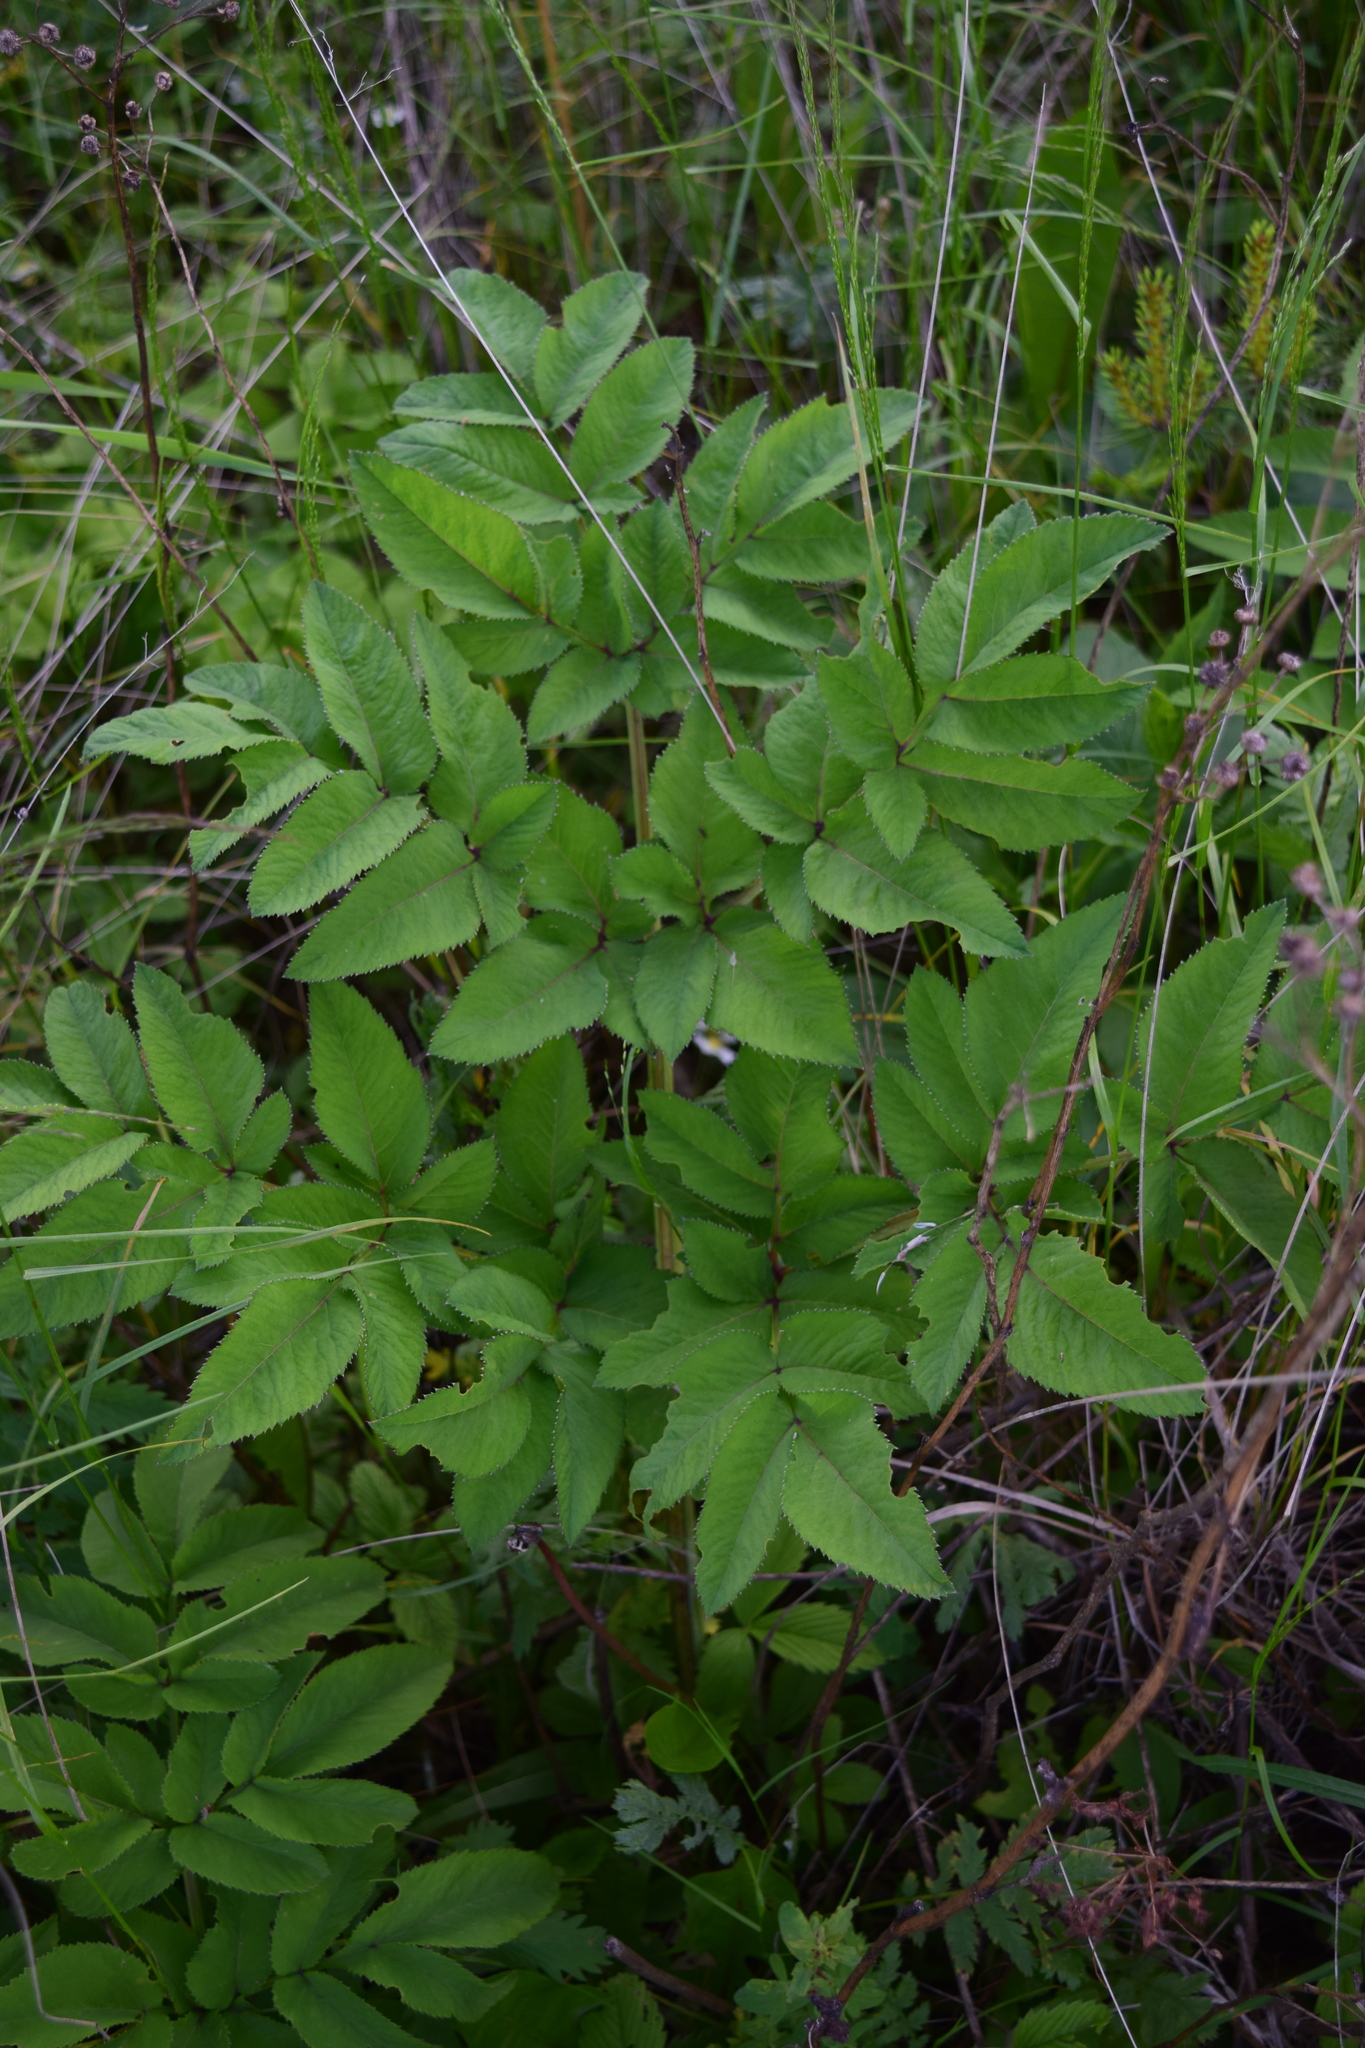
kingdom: Plantae
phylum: Tracheophyta
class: Magnoliopsida
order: Apiales
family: Apiaceae
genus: Angelica
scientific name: Angelica sylvestris
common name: Wild angelica
